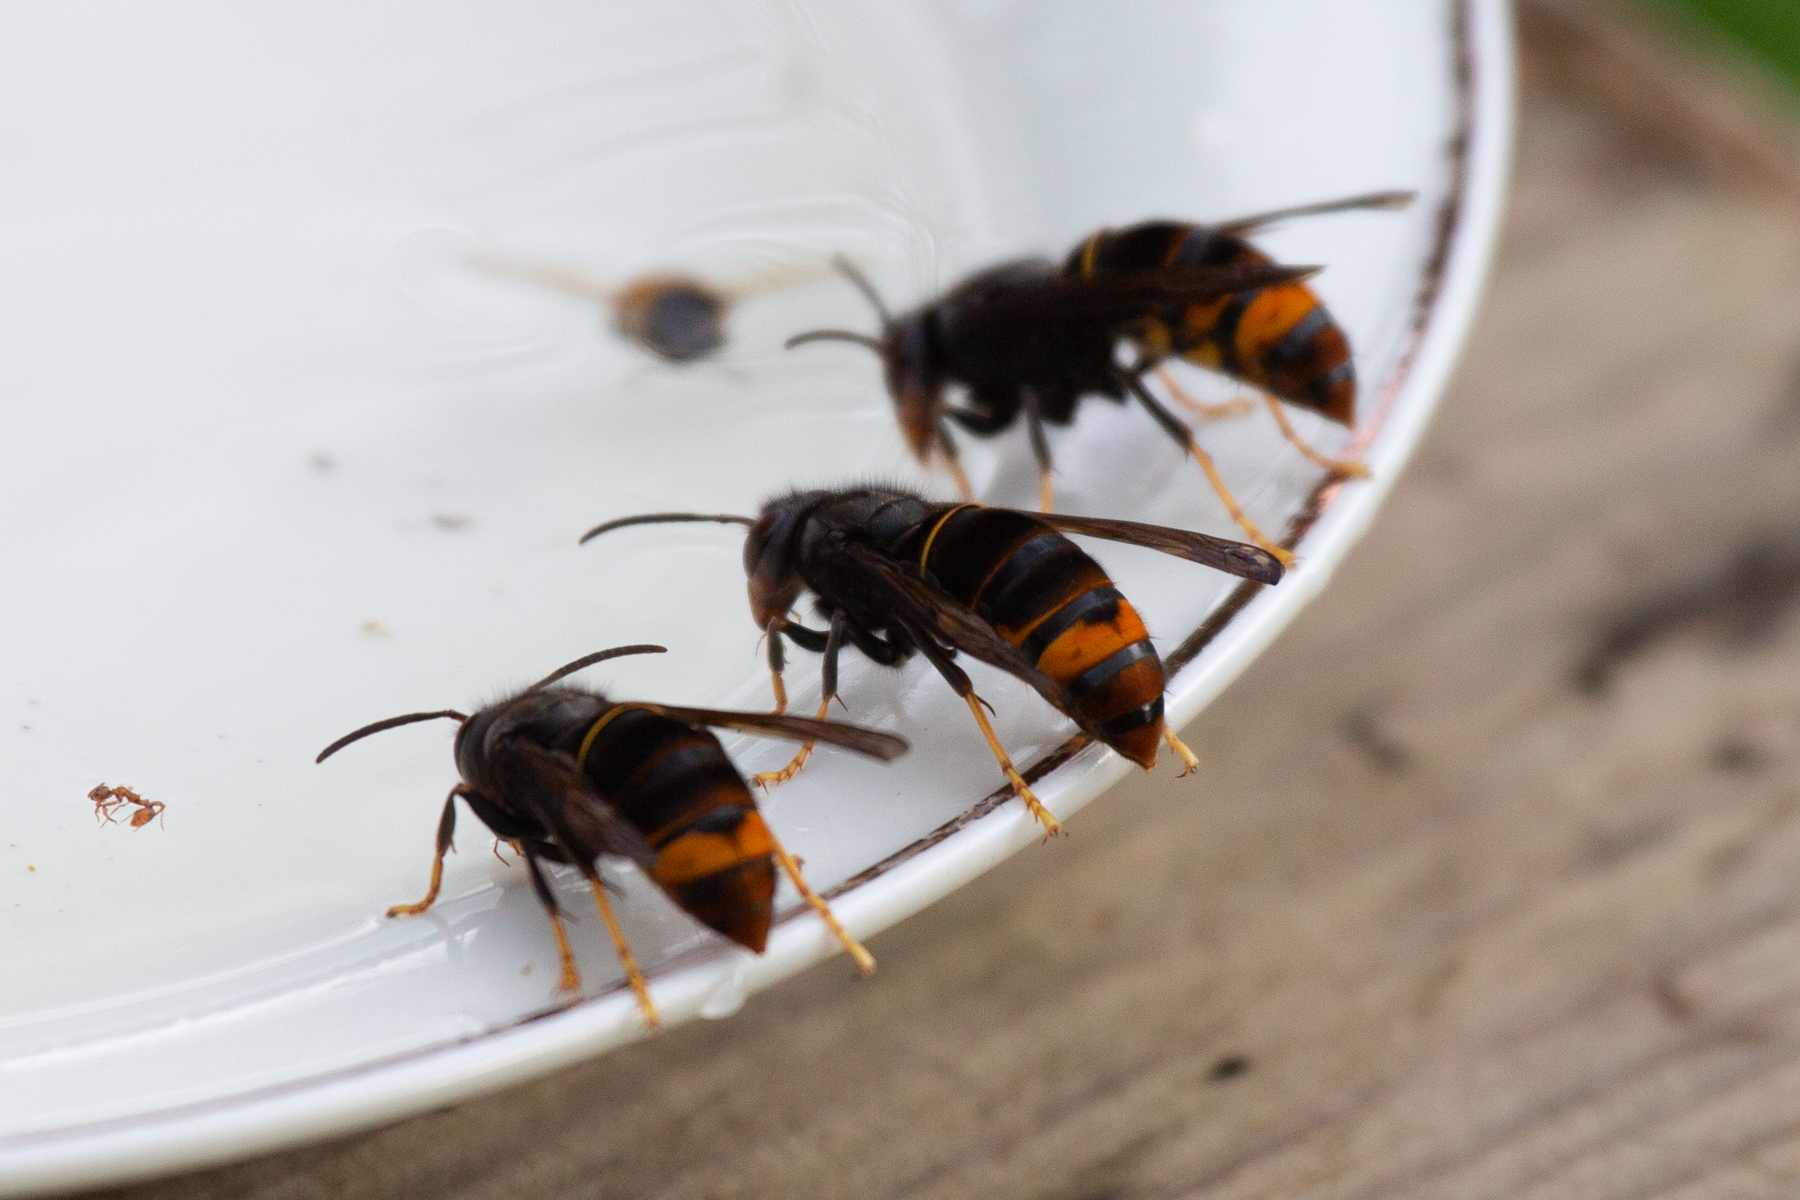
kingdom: Animalia
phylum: Arthropoda
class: Insecta
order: Hymenoptera
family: Vespidae
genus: Vespa
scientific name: Vespa velutina
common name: Asian hornet
